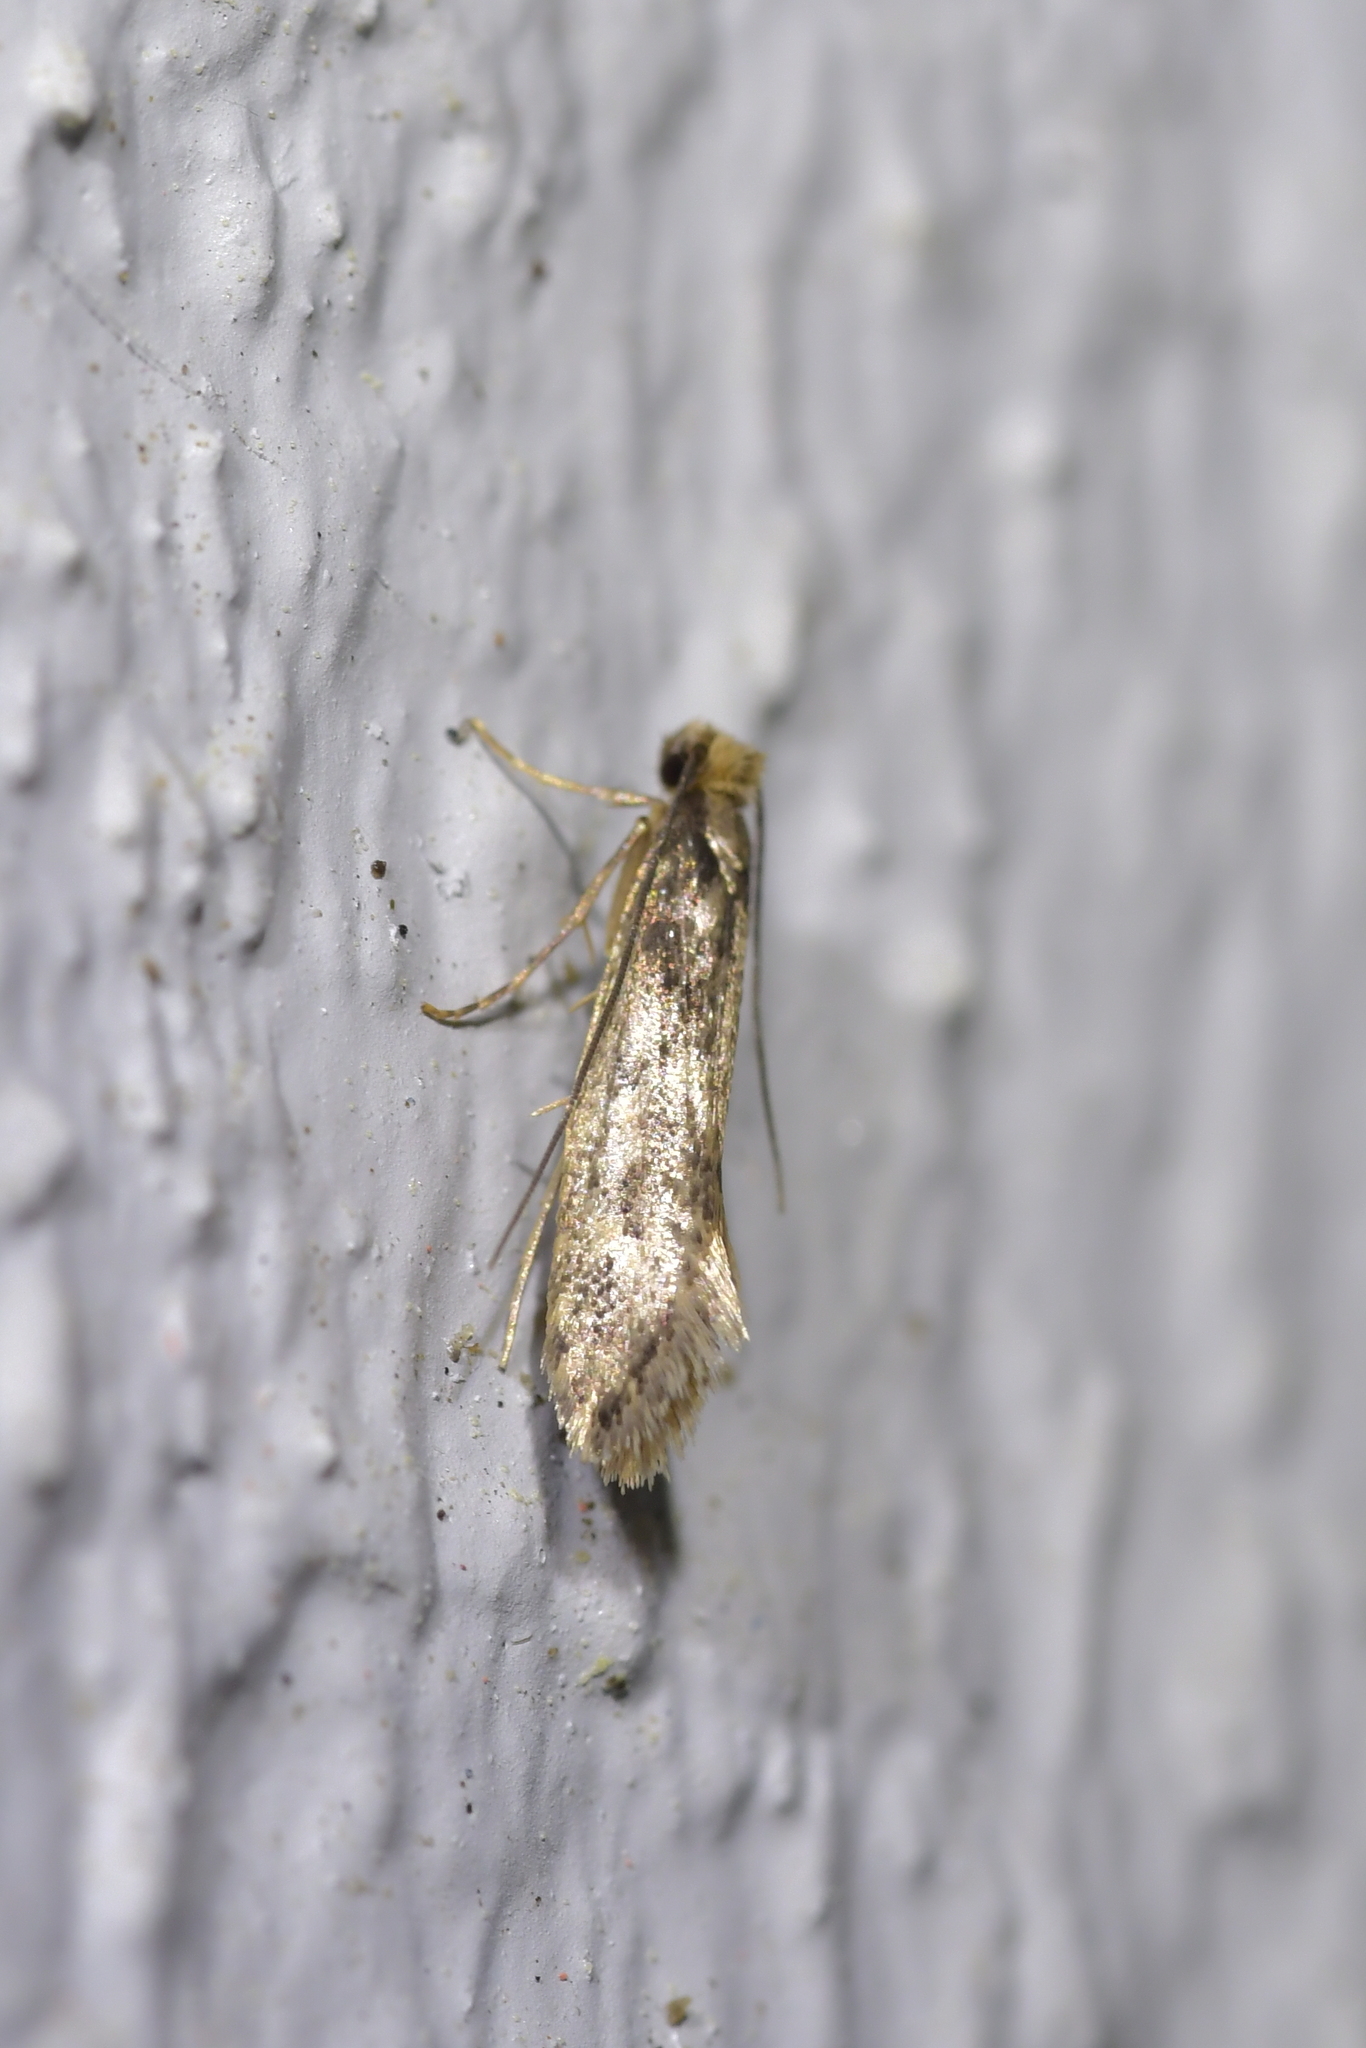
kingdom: Animalia
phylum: Arthropoda
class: Insecta
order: Lepidoptera
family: Tineidae
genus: Tinea
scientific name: Tinea pallescentella
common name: Large pale clothes moth
